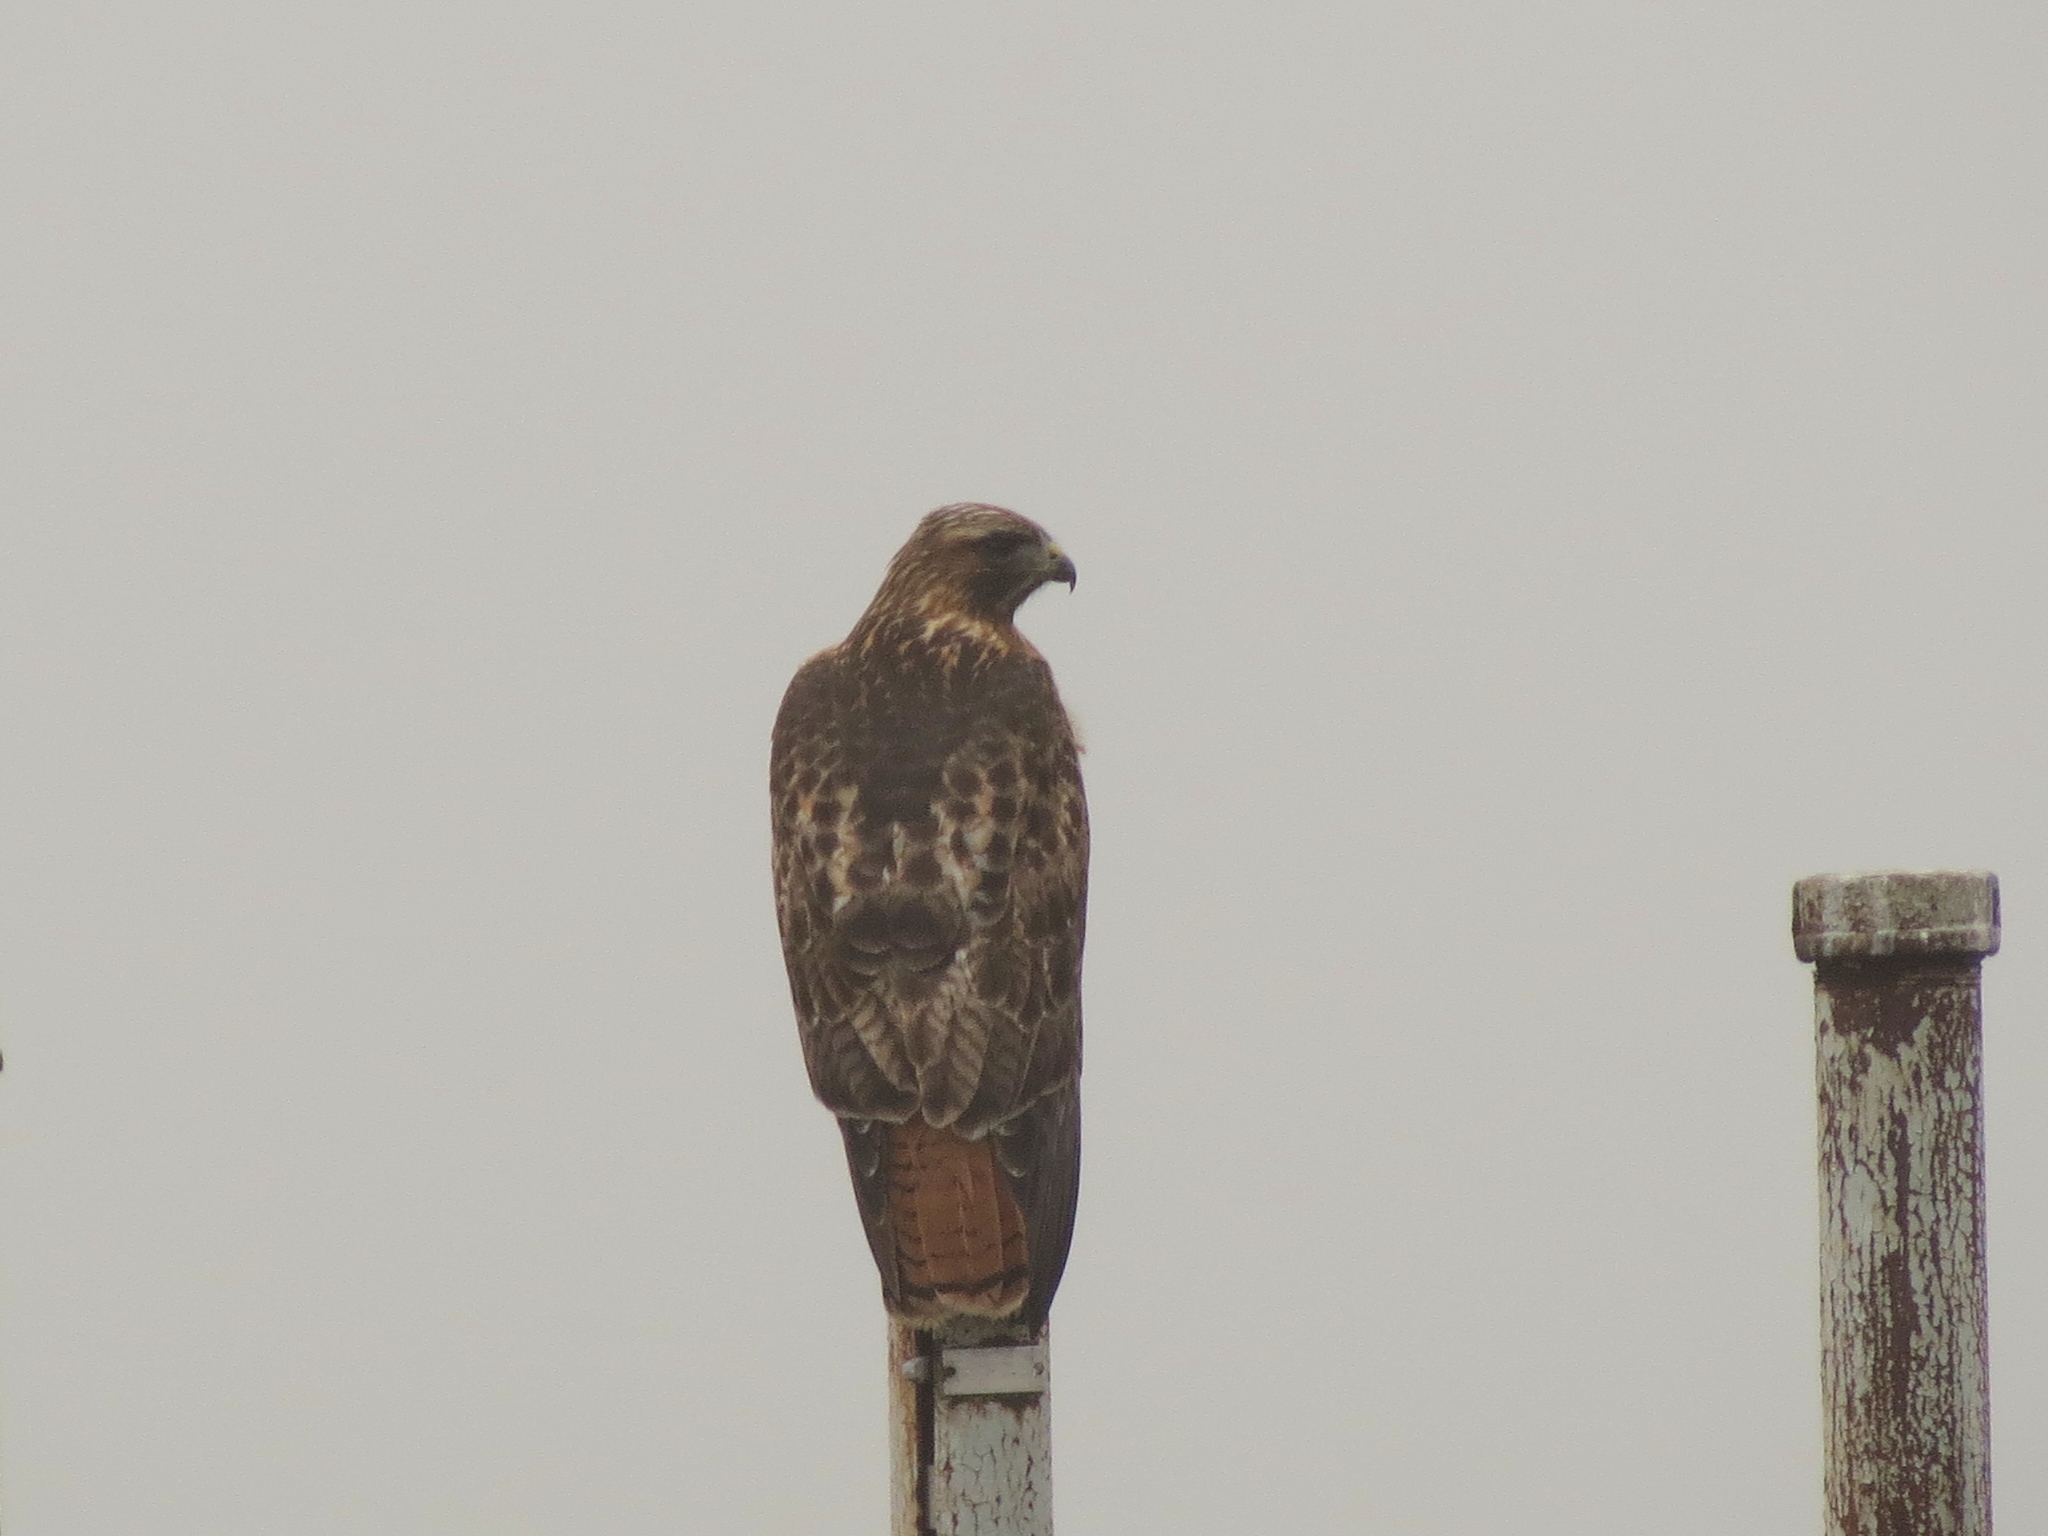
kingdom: Animalia
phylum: Chordata
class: Aves
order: Accipitriformes
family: Accipitridae
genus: Buteo
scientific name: Buteo jamaicensis
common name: Red-tailed hawk
